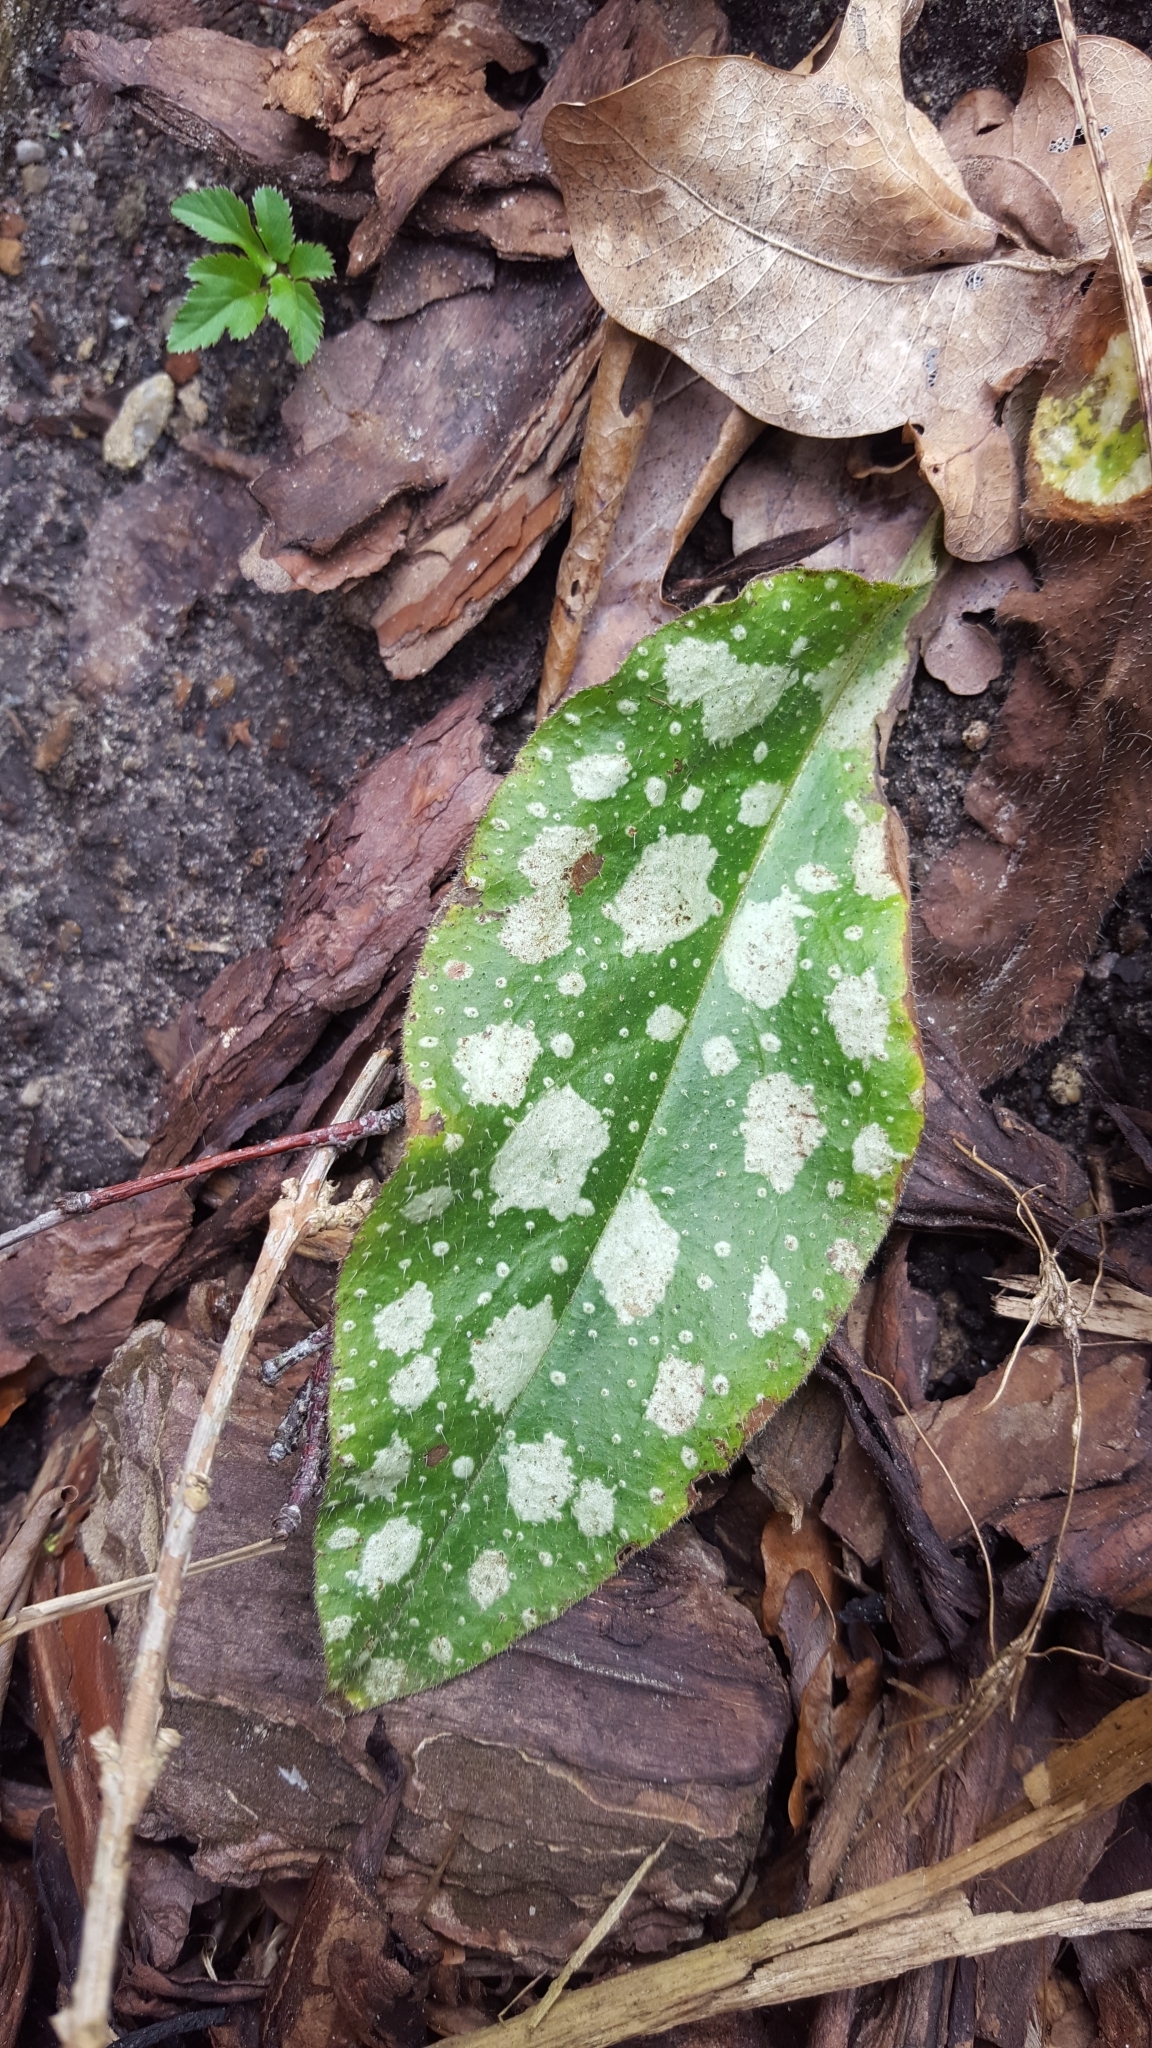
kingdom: Plantae
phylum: Tracheophyta
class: Magnoliopsida
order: Boraginales
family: Boraginaceae
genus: Pulmonaria
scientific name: Pulmonaria officinalis
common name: Lungwort
